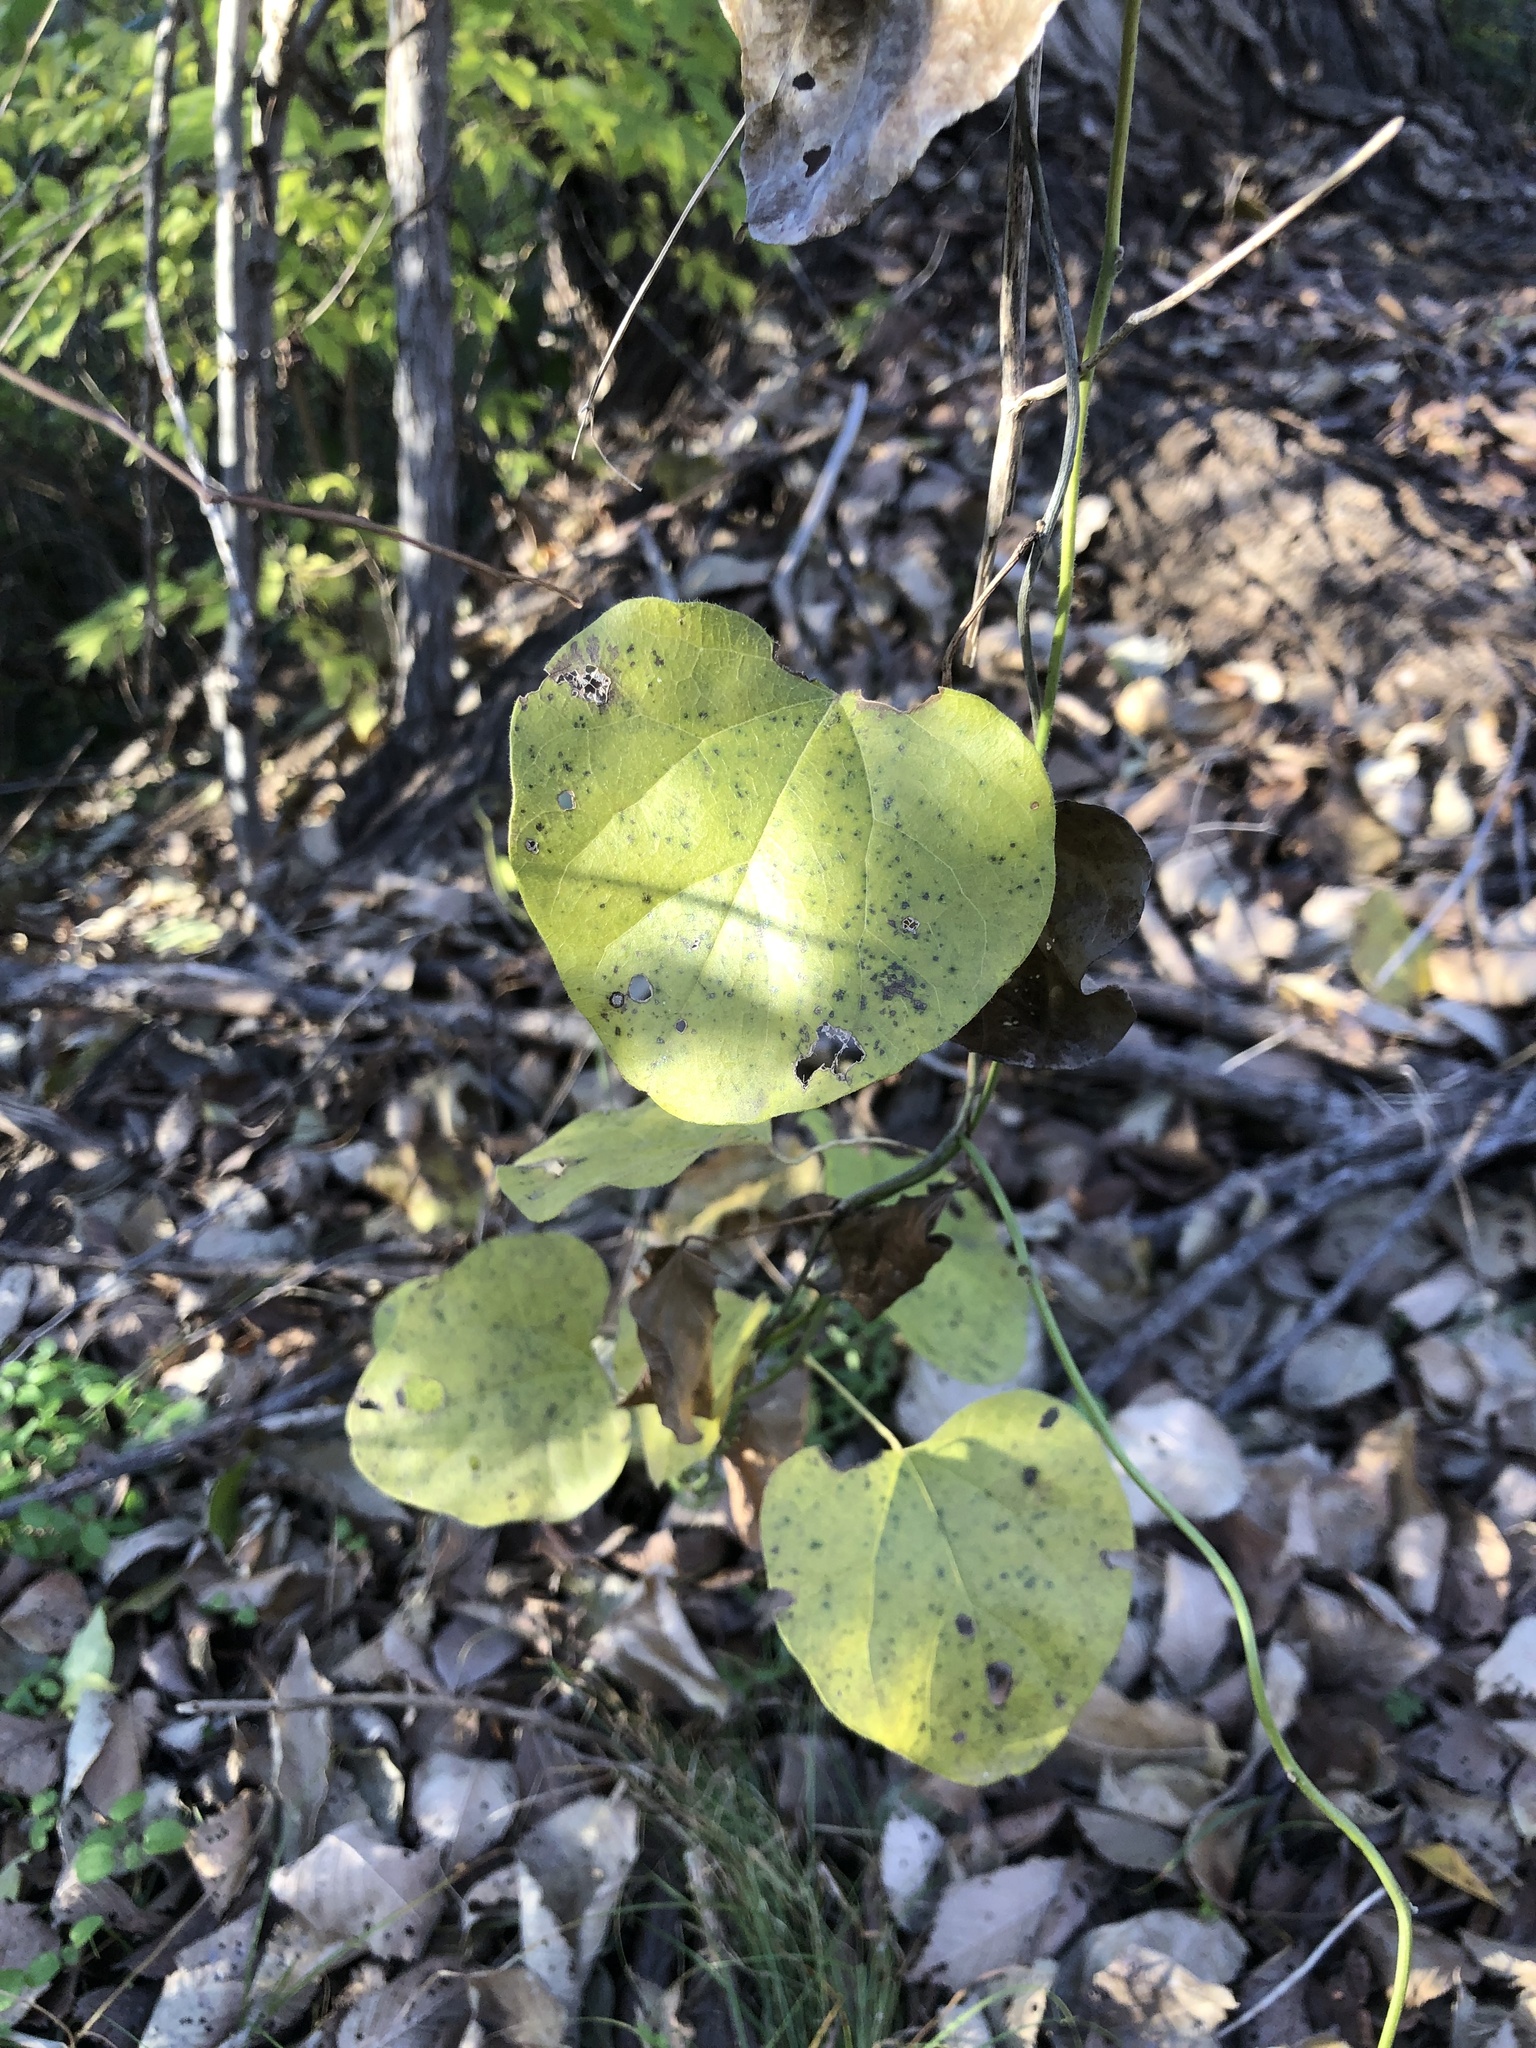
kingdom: Plantae
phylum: Tracheophyta
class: Magnoliopsida
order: Ranunculales
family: Menispermaceae
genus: Cocculus
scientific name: Cocculus carolinus
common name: Carolina moonseed
